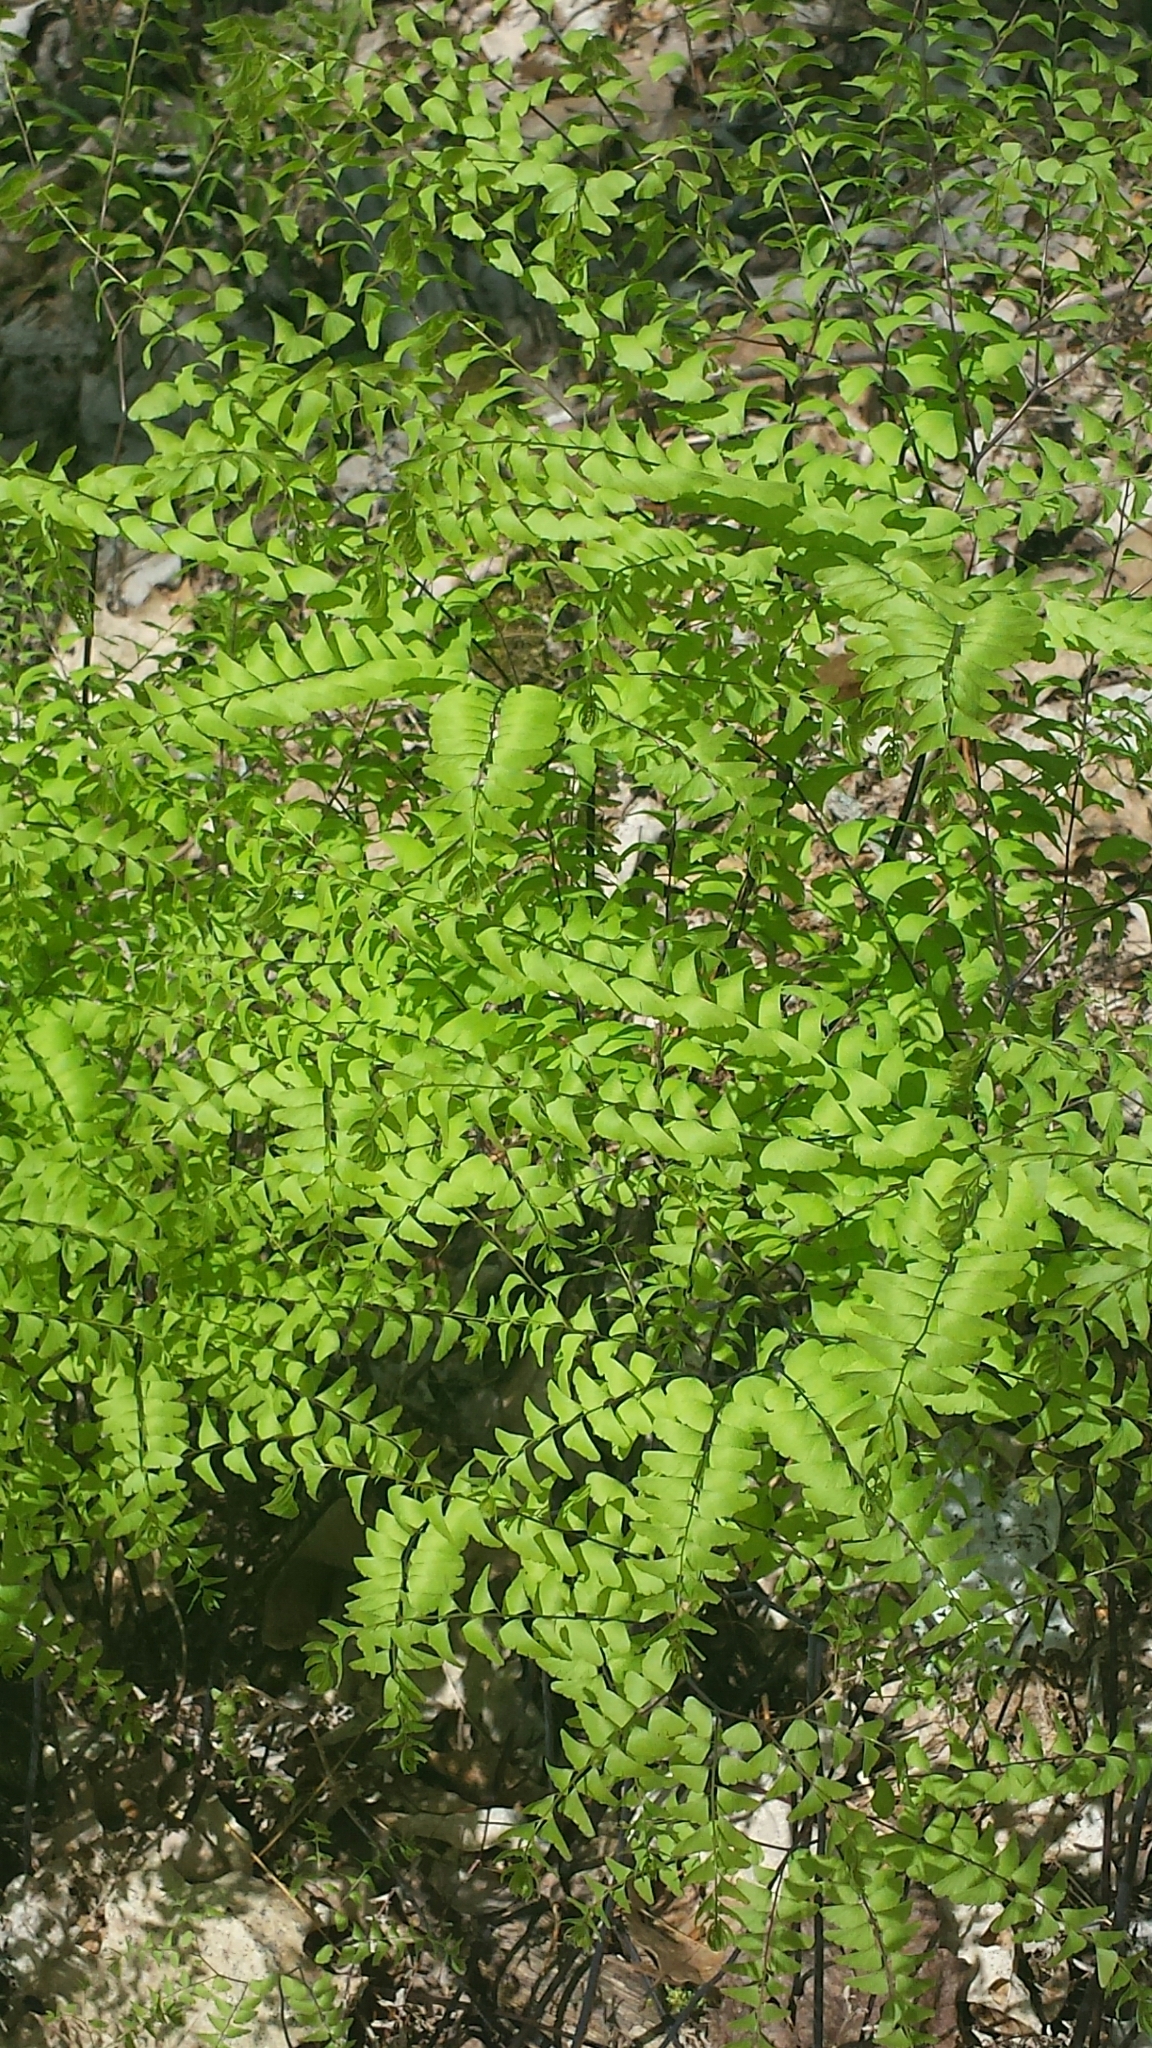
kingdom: Plantae
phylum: Tracheophyta
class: Polypodiopsida
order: Polypodiales
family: Pteridaceae
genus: Adiantum
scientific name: Adiantum pedatum
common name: Five-finger fern
